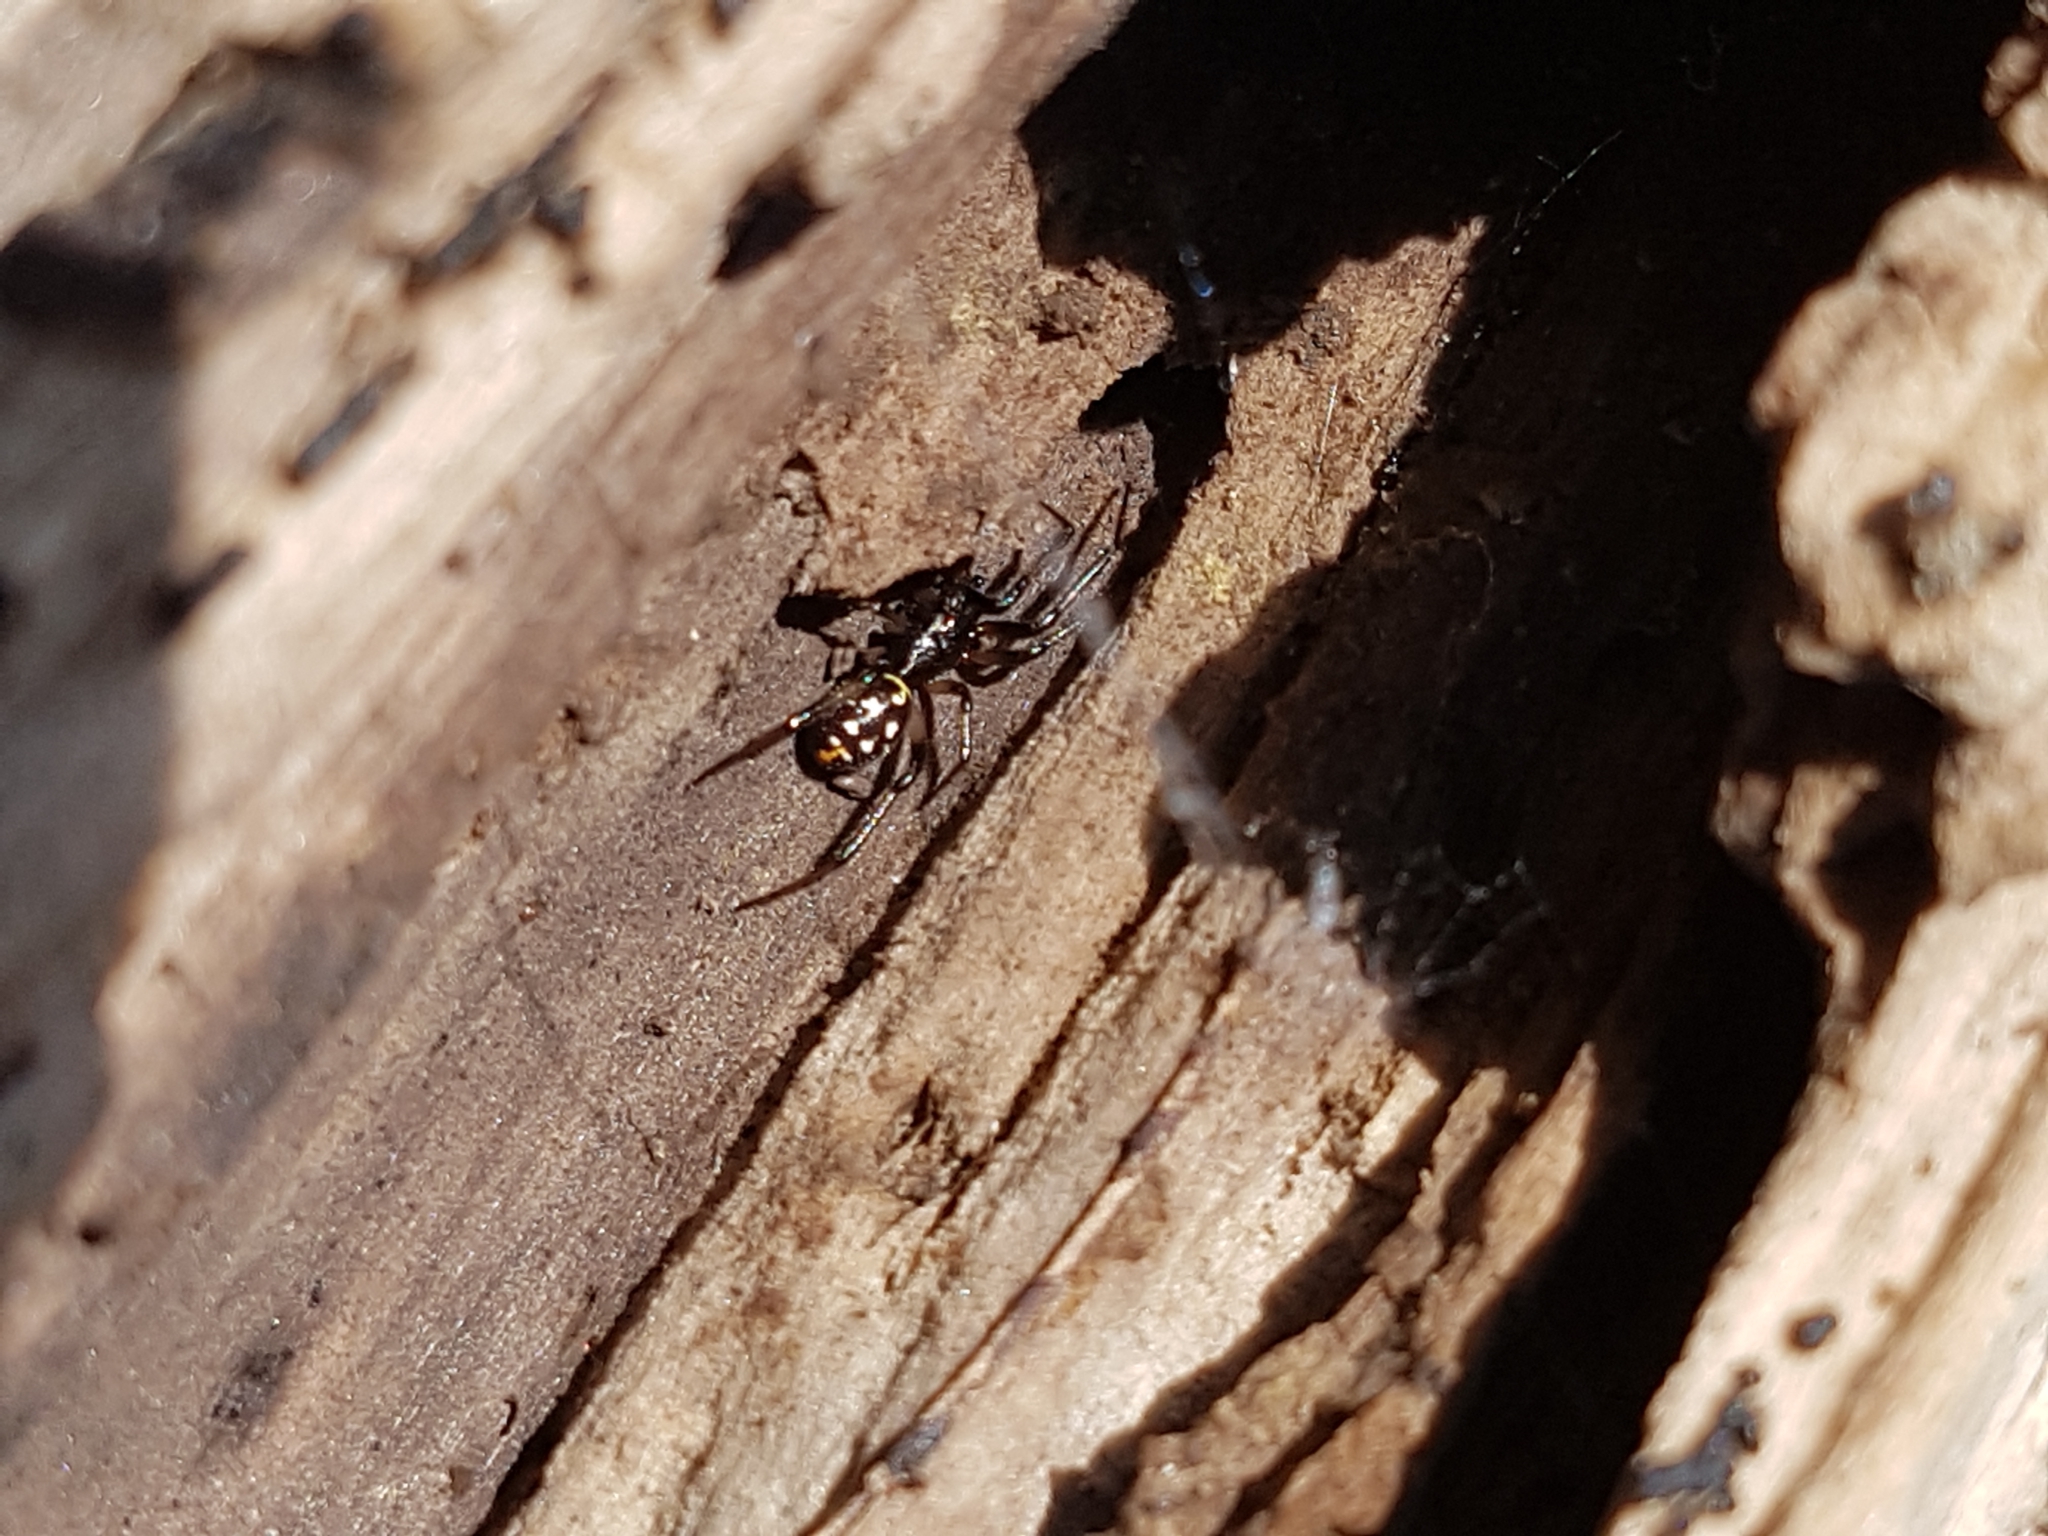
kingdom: Animalia
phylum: Arthropoda
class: Arachnida
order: Araneae
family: Theridiidae
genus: Steatoda
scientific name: Steatoda capensis
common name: Cobweb weaver
